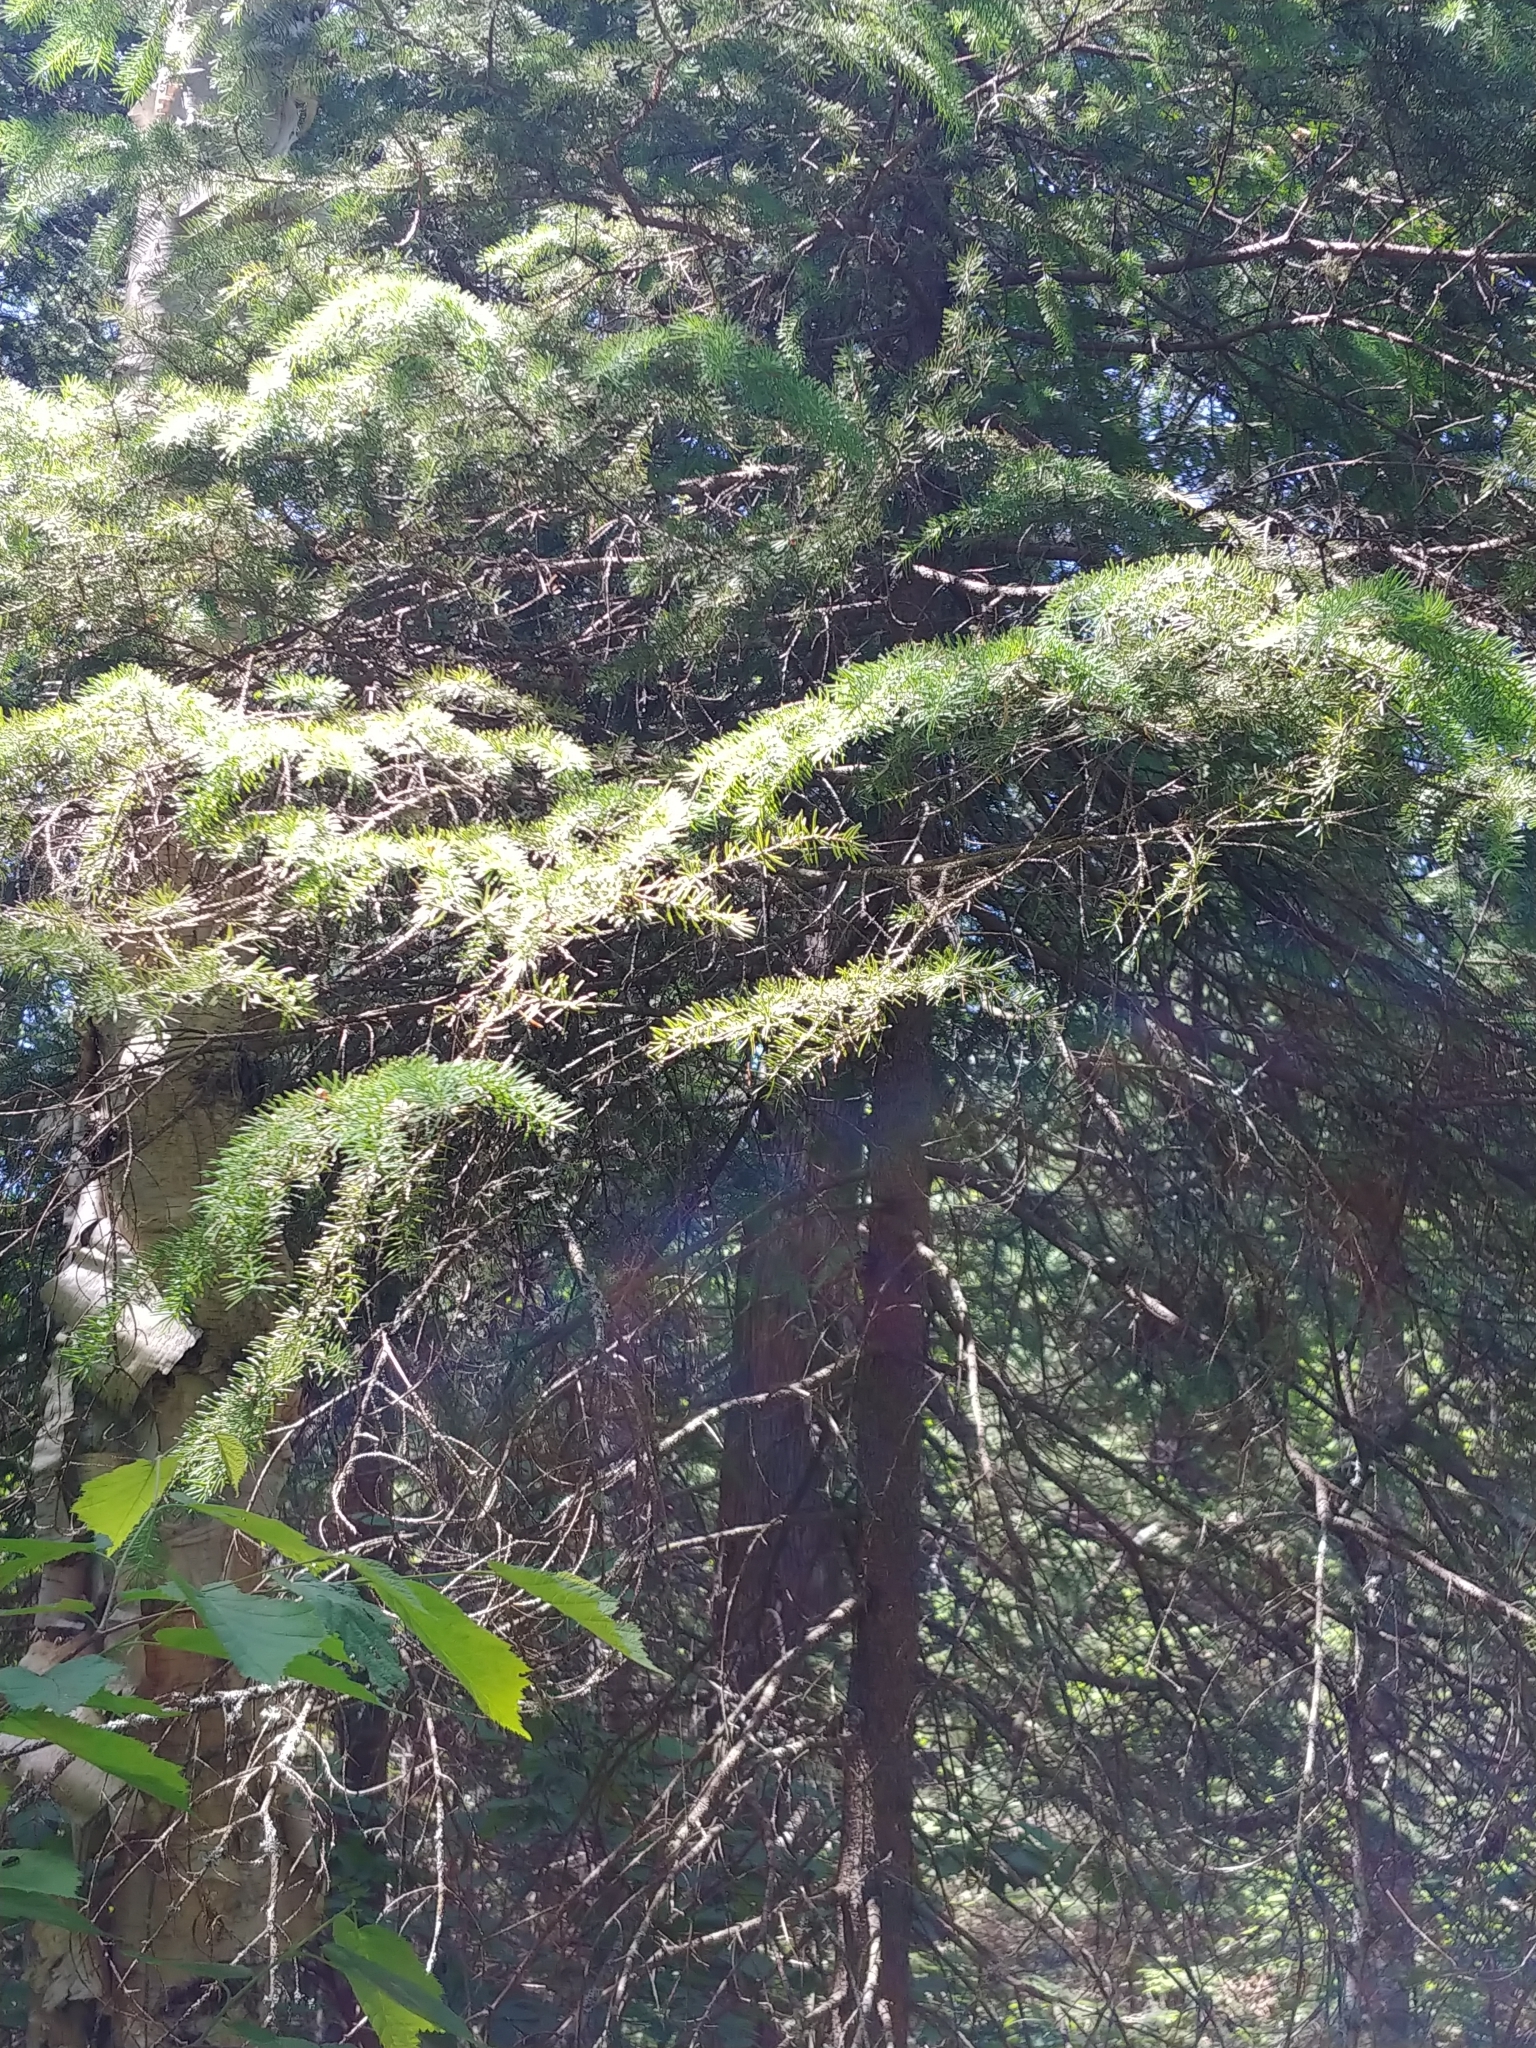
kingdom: Plantae
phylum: Tracheophyta
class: Pinopsida
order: Pinales
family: Pinaceae
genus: Picea
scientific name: Picea mariana
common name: Black spruce
